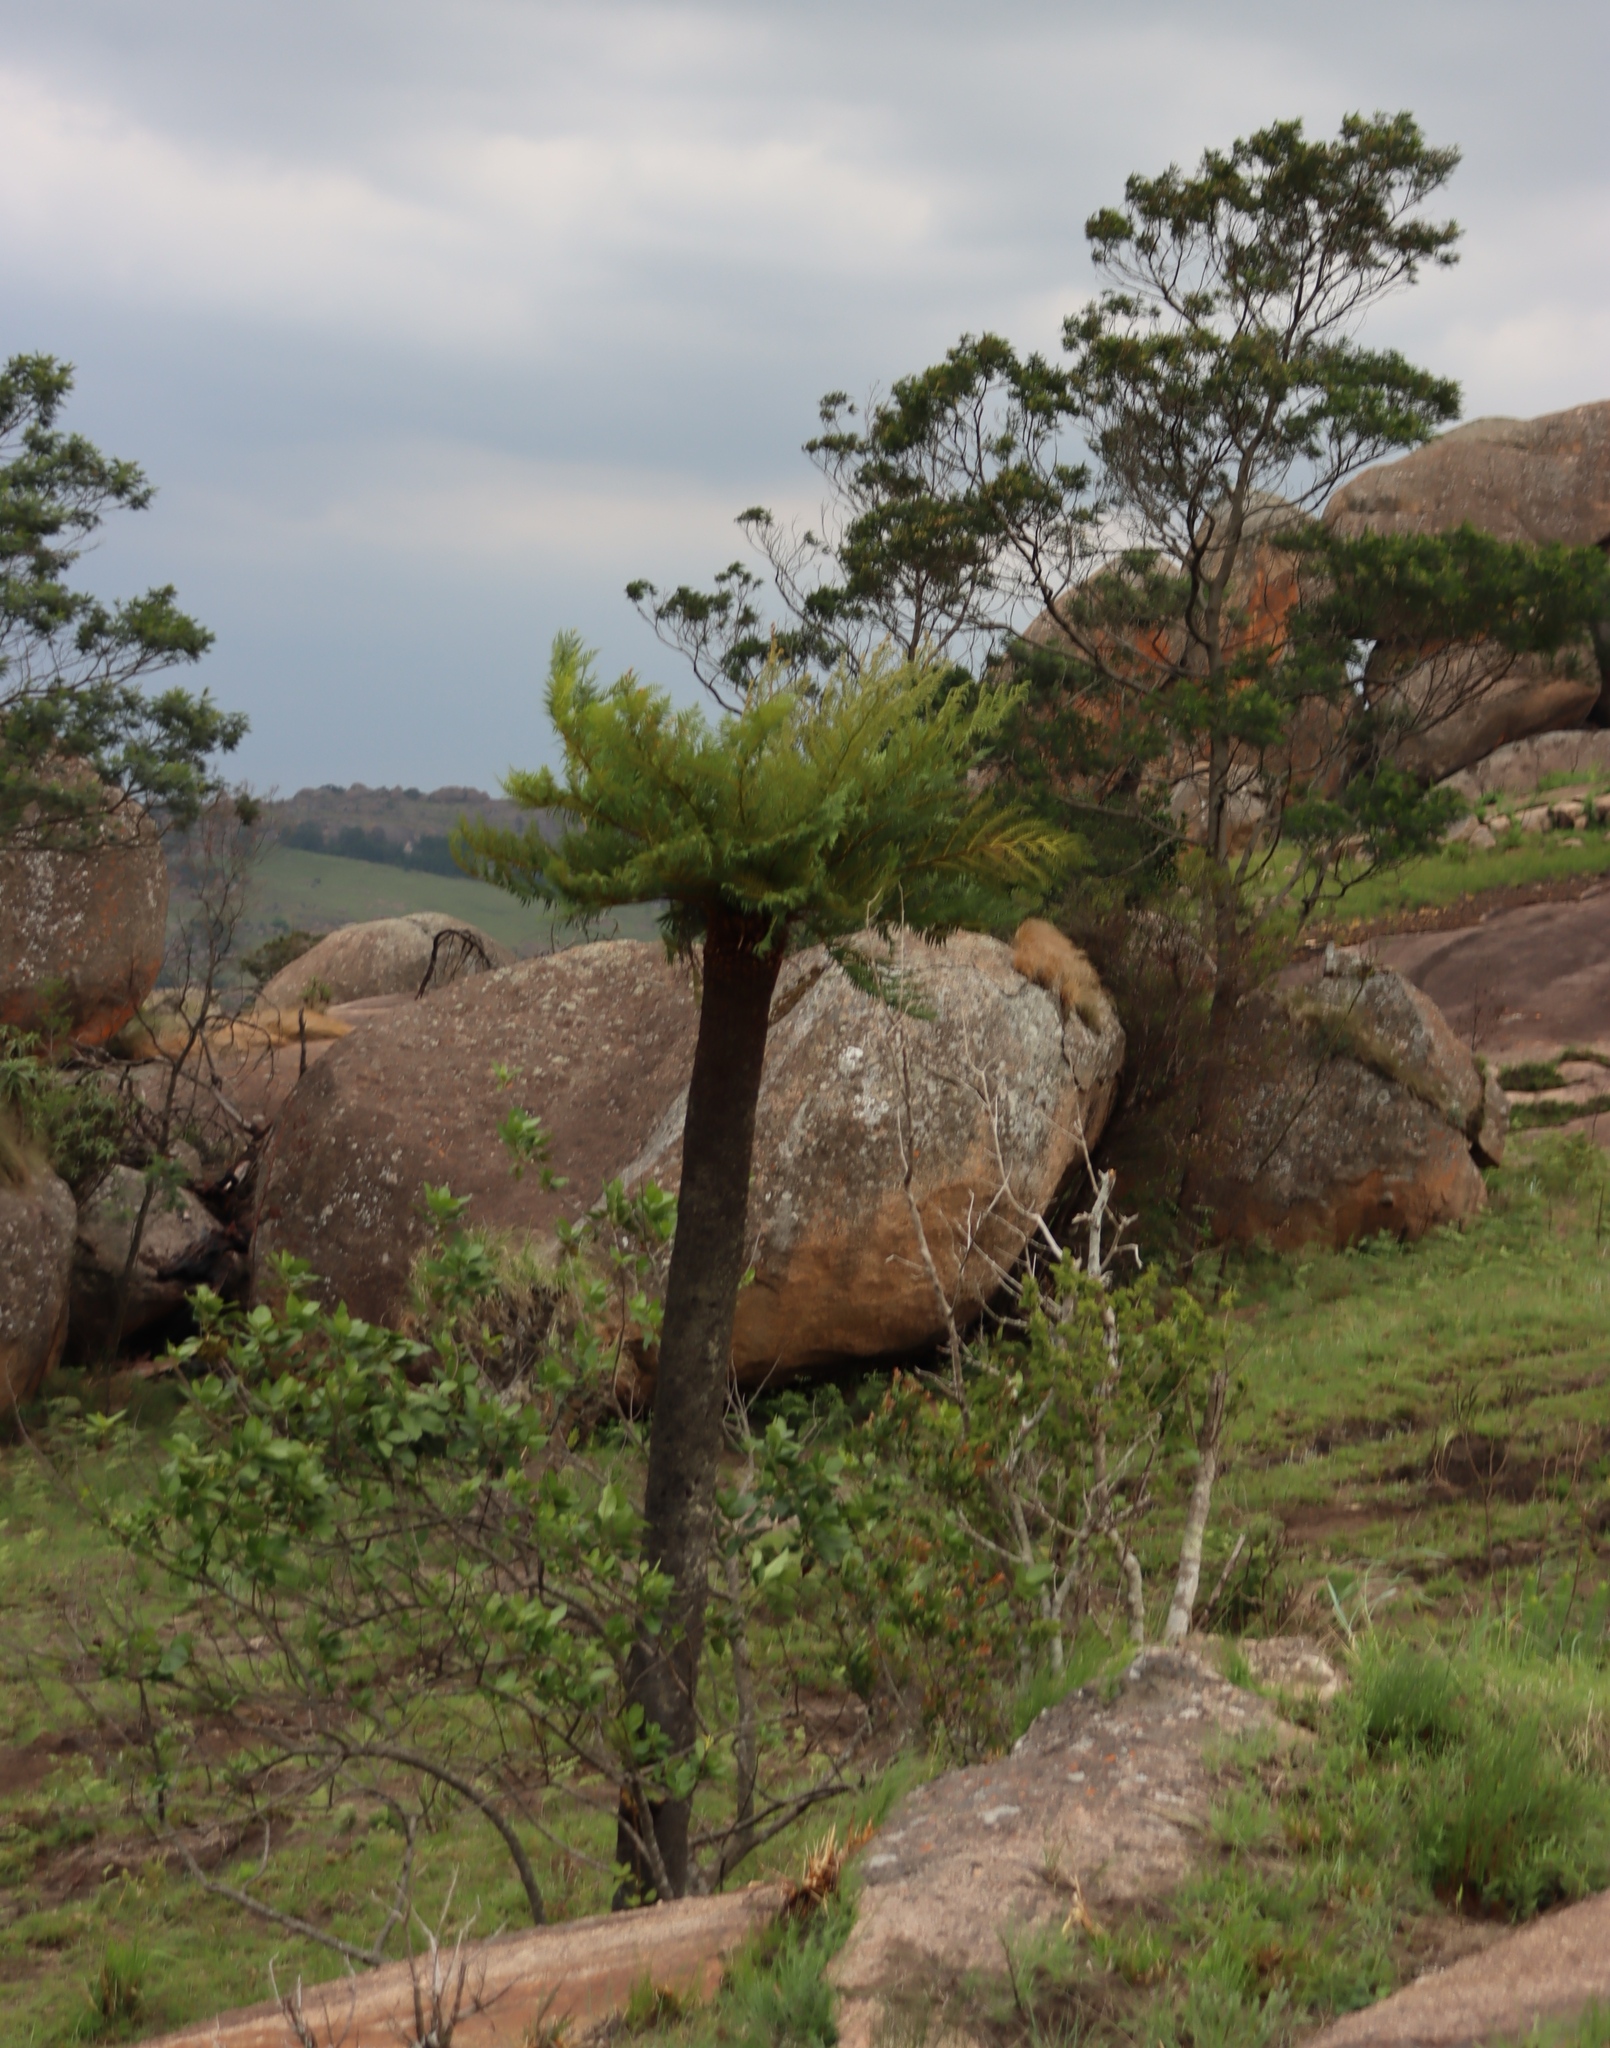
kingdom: Plantae
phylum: Tracheophyta
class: Polypodiopsida
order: Cyatheales
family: Cyatheaceae
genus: Alsophila
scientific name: Alsophila dregei
